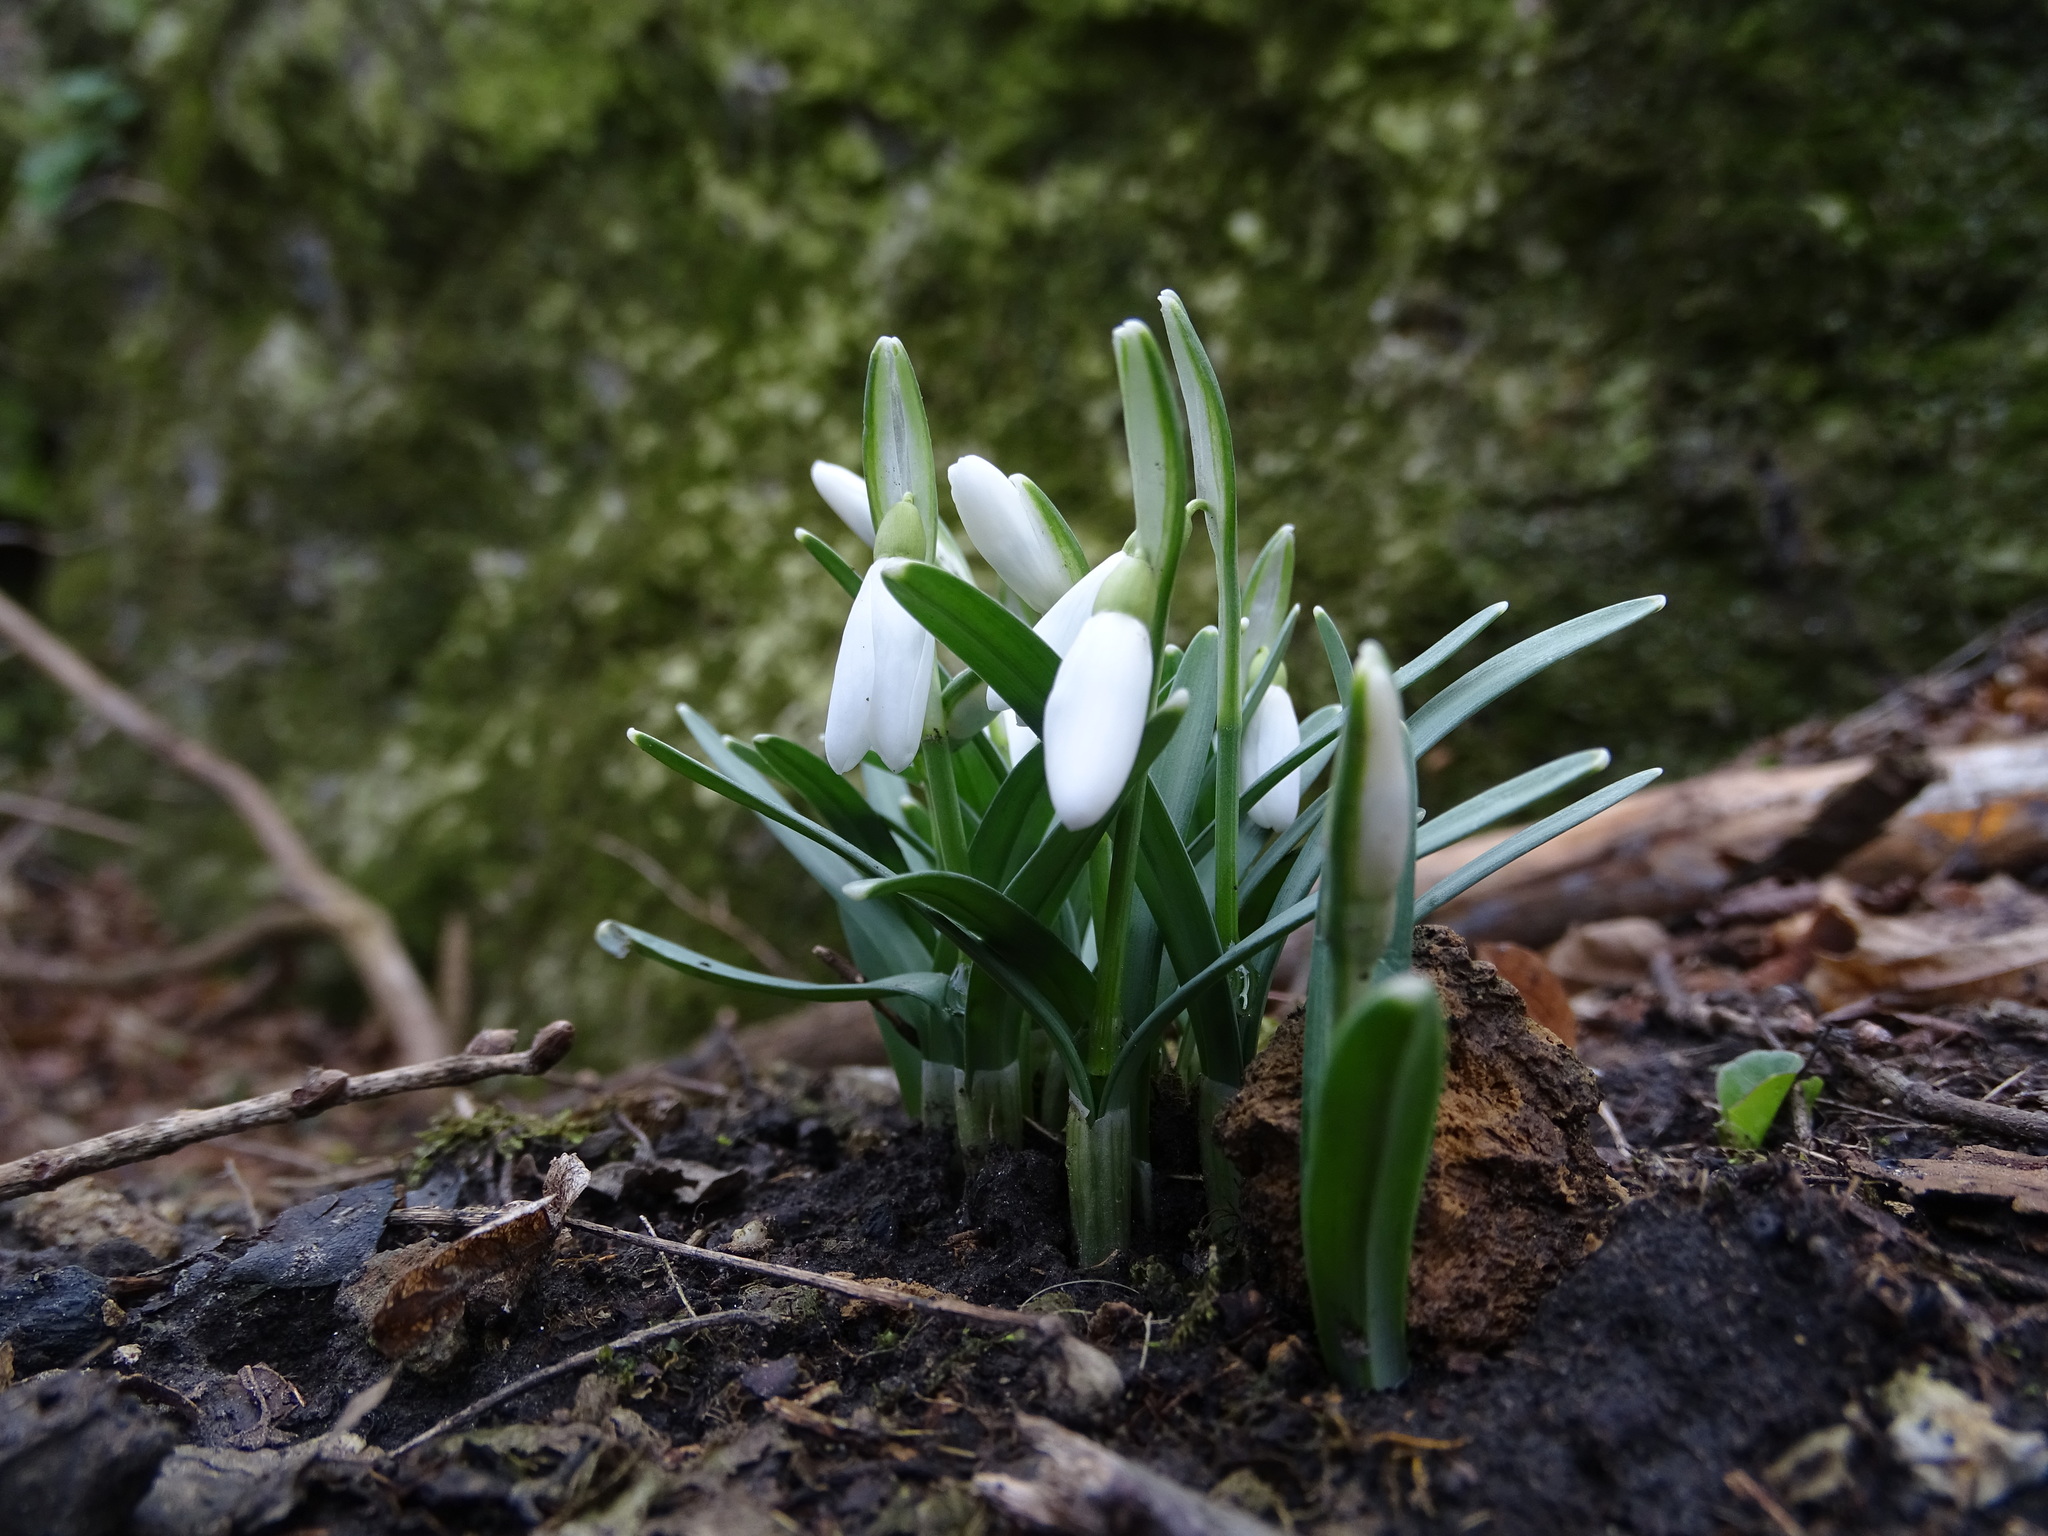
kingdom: Plantae
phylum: Tracheophyta
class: Liliopsida
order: Asparagales
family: Amaryllidaceae
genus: Galanthus
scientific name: Galanthus nivalis
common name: Snowdrop
